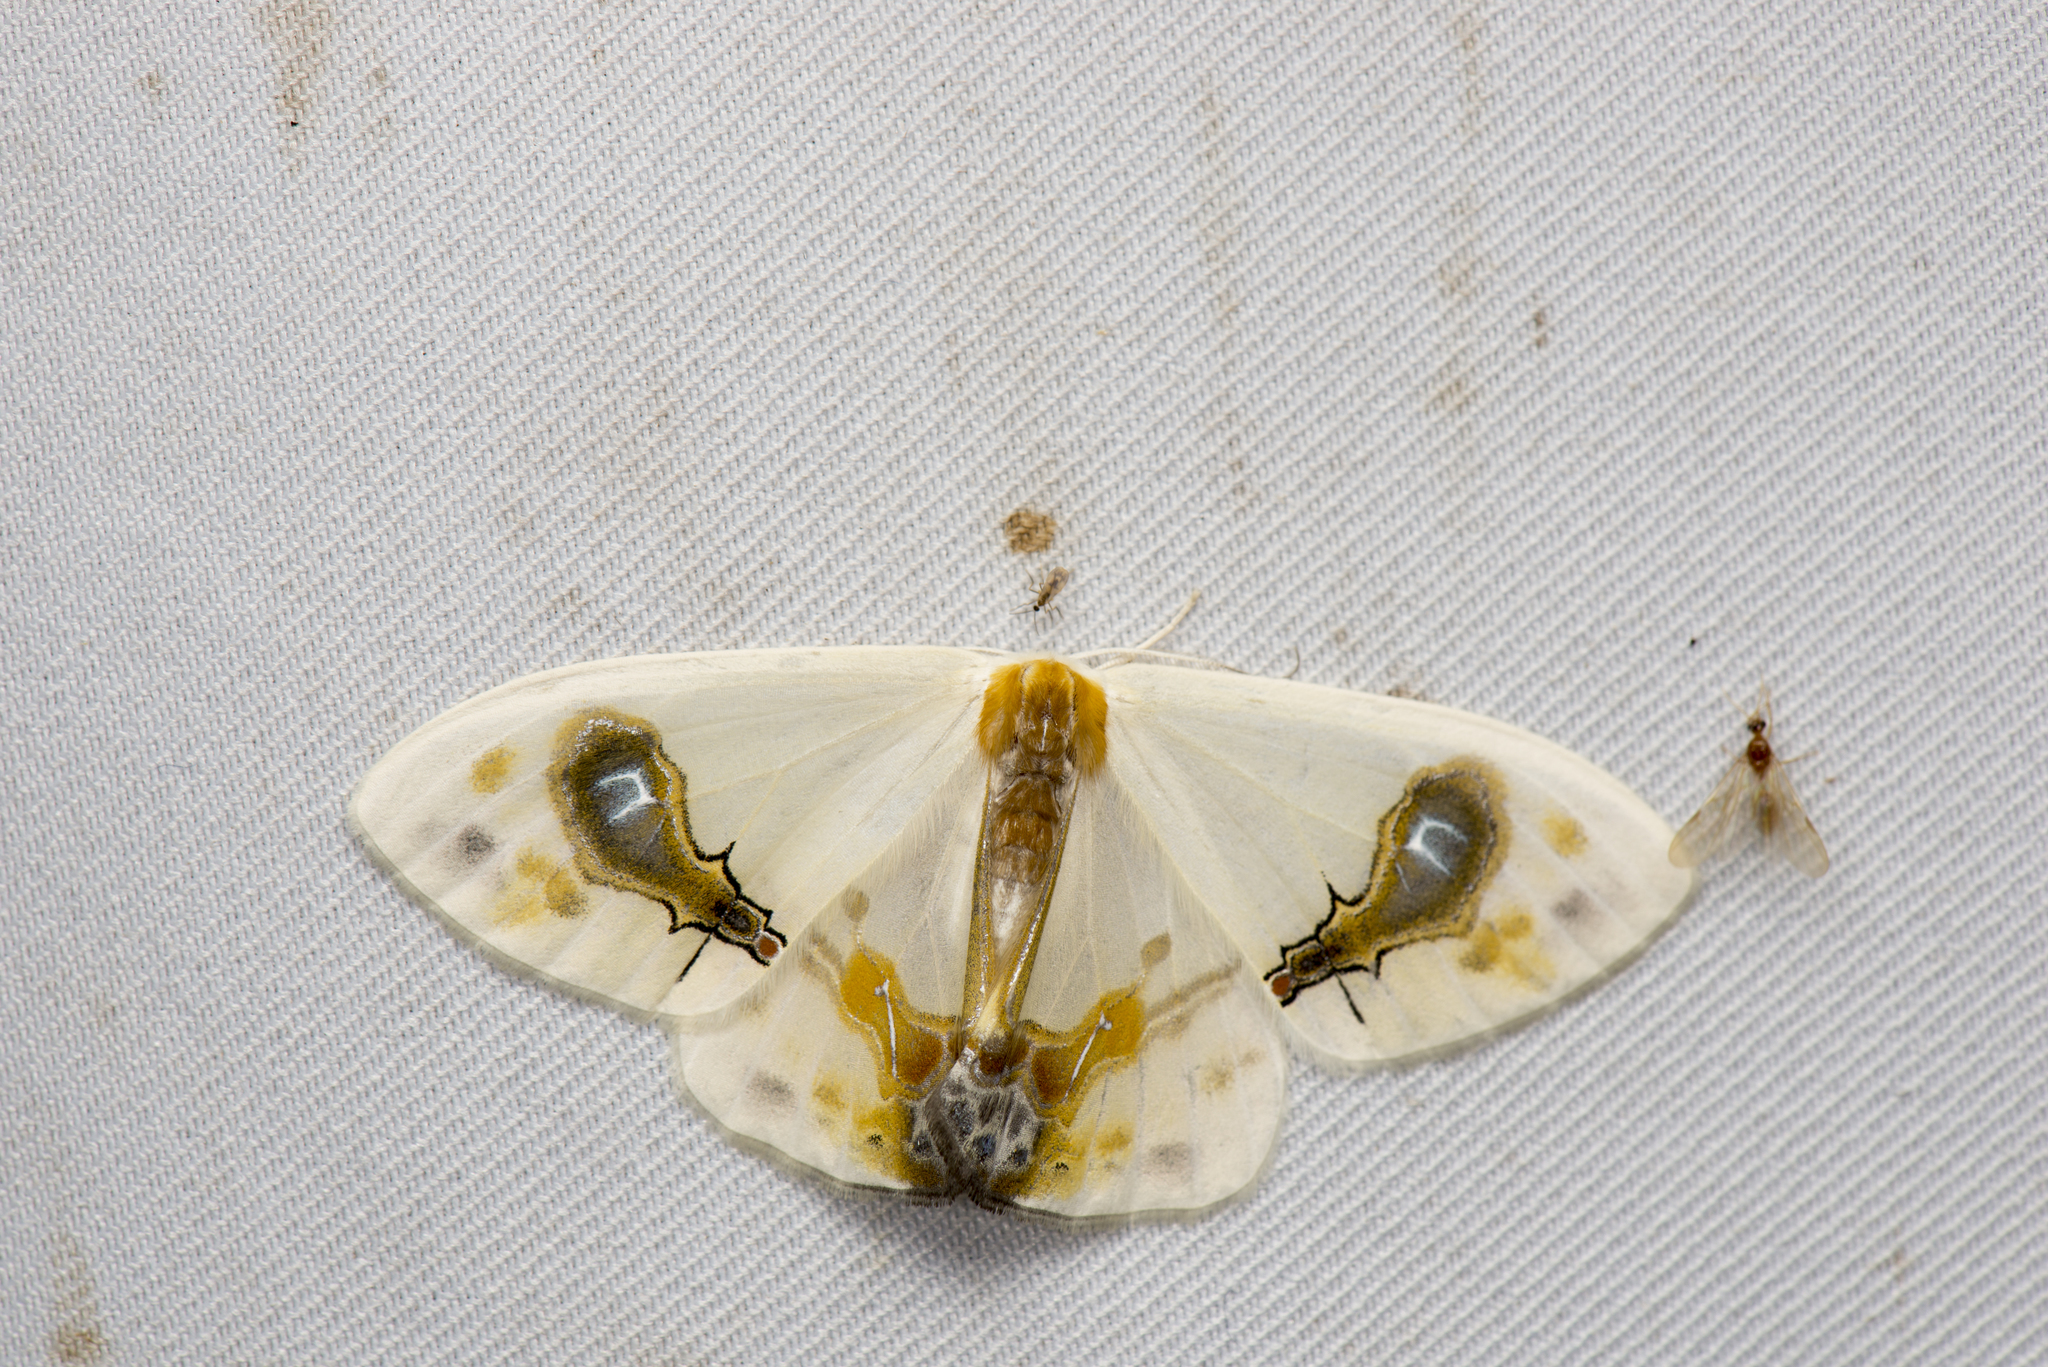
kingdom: Animalia
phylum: Arthropoda
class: Insecta
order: Lepidoptera
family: Drepanidae
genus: Macrocilix
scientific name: Macrocilix maia
